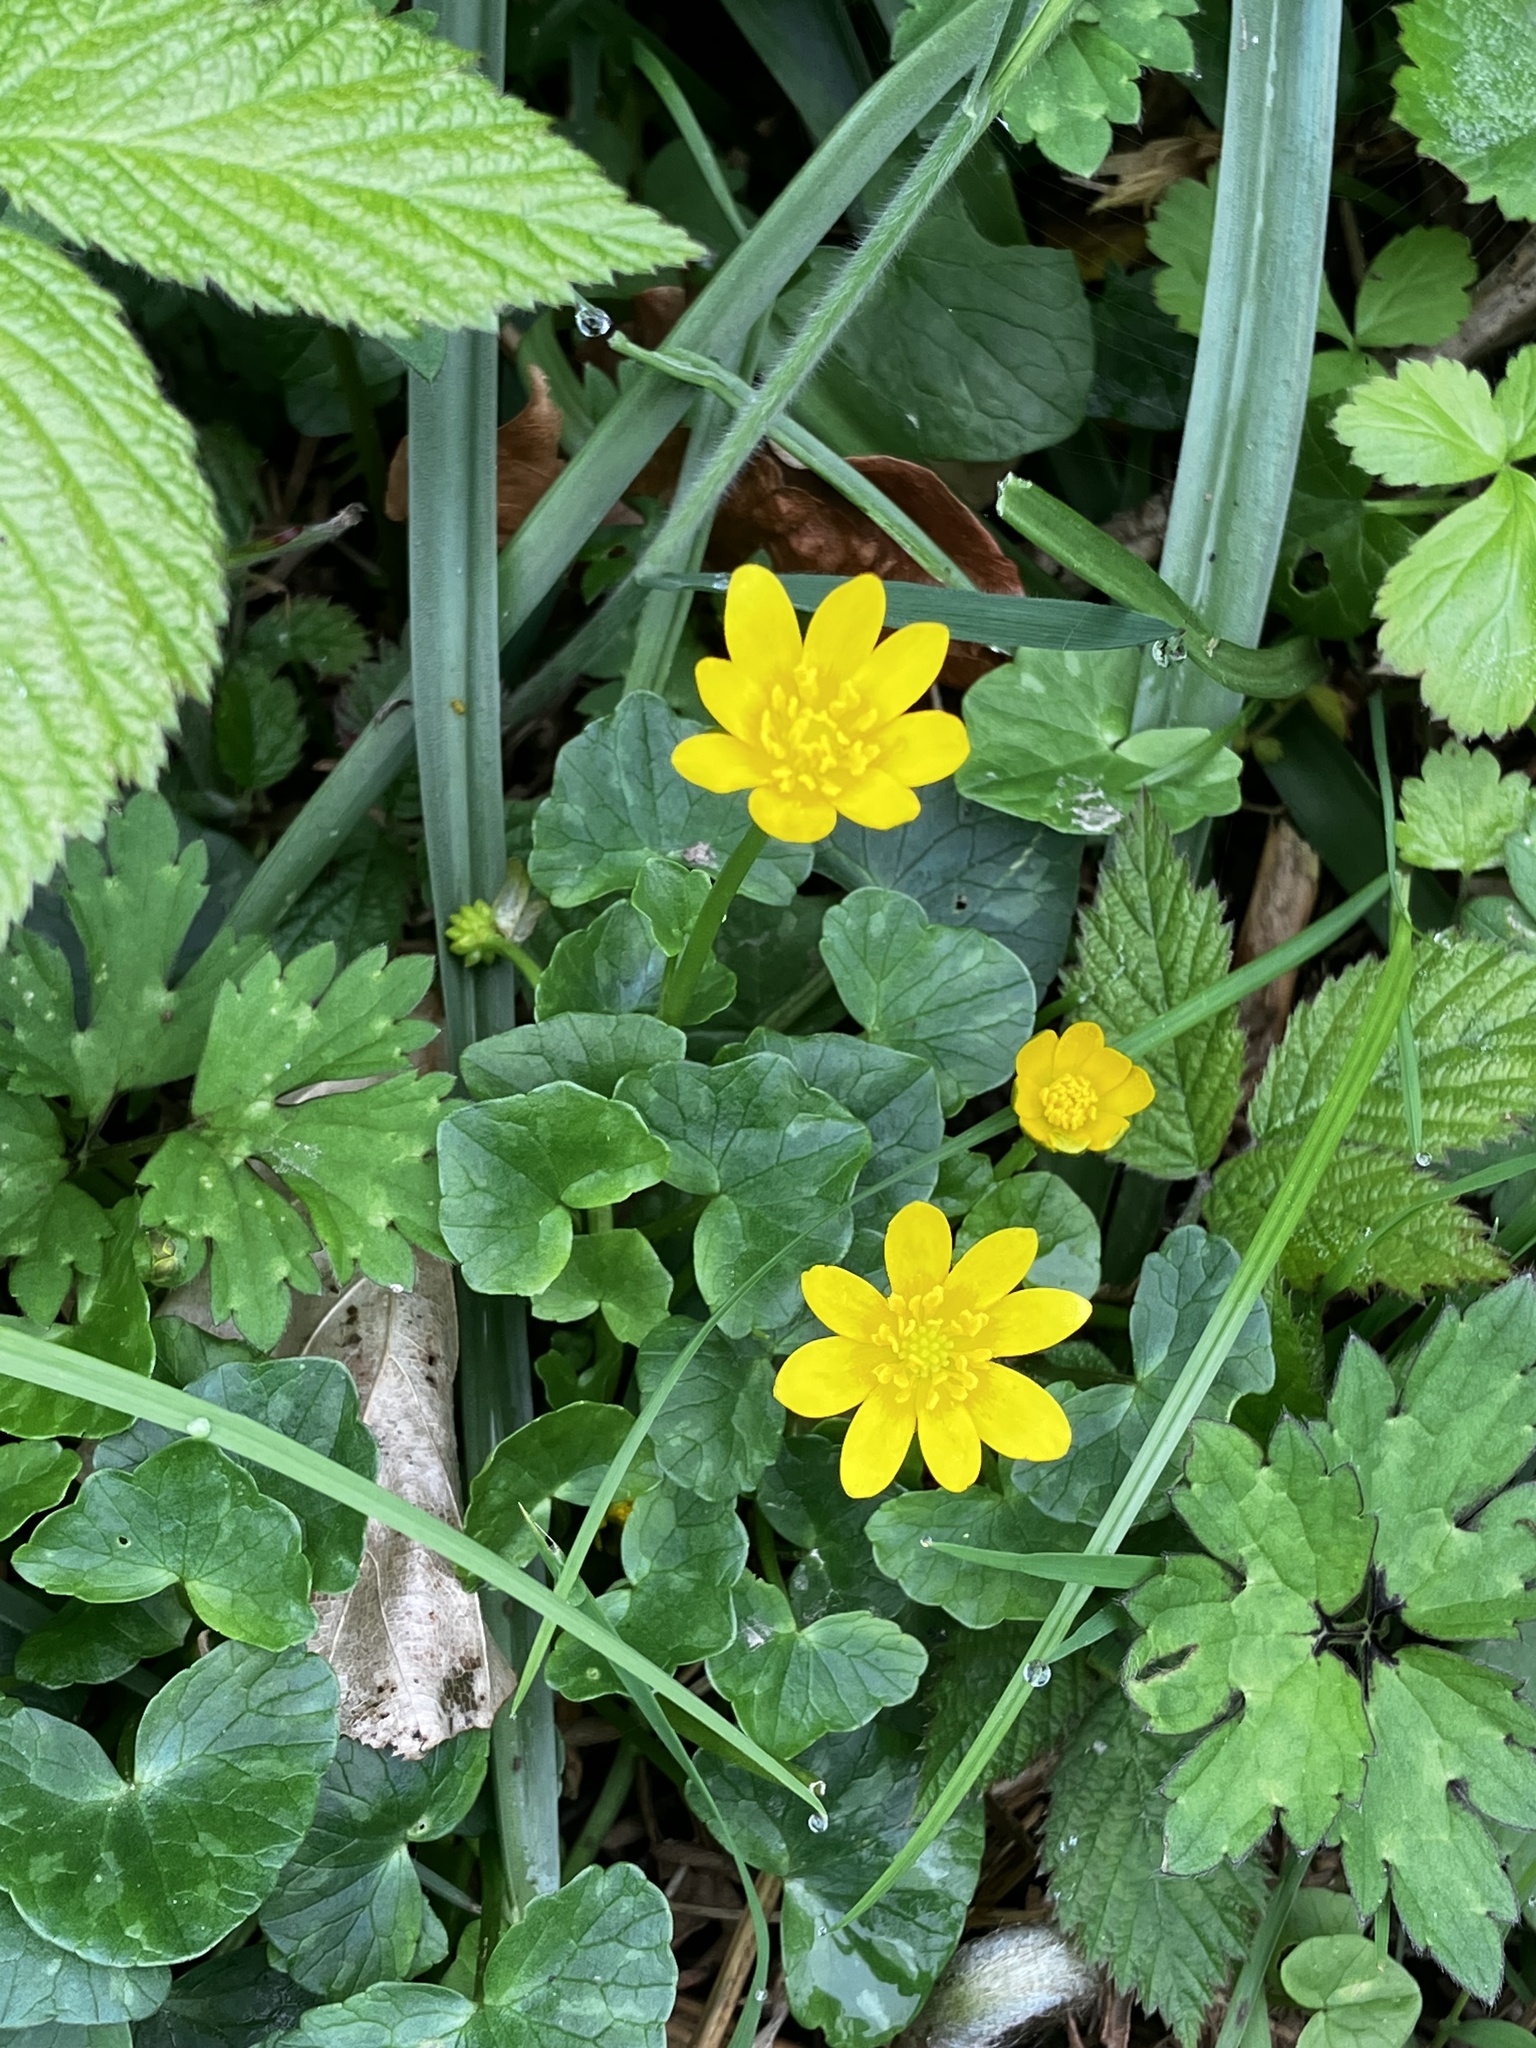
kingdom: Plantae
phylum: Tracheophyta
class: Magnoliopsida
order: Ranunculales
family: Ranunculaceae
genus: Ficaria
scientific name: Ficaria verna
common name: Lesser celandine
